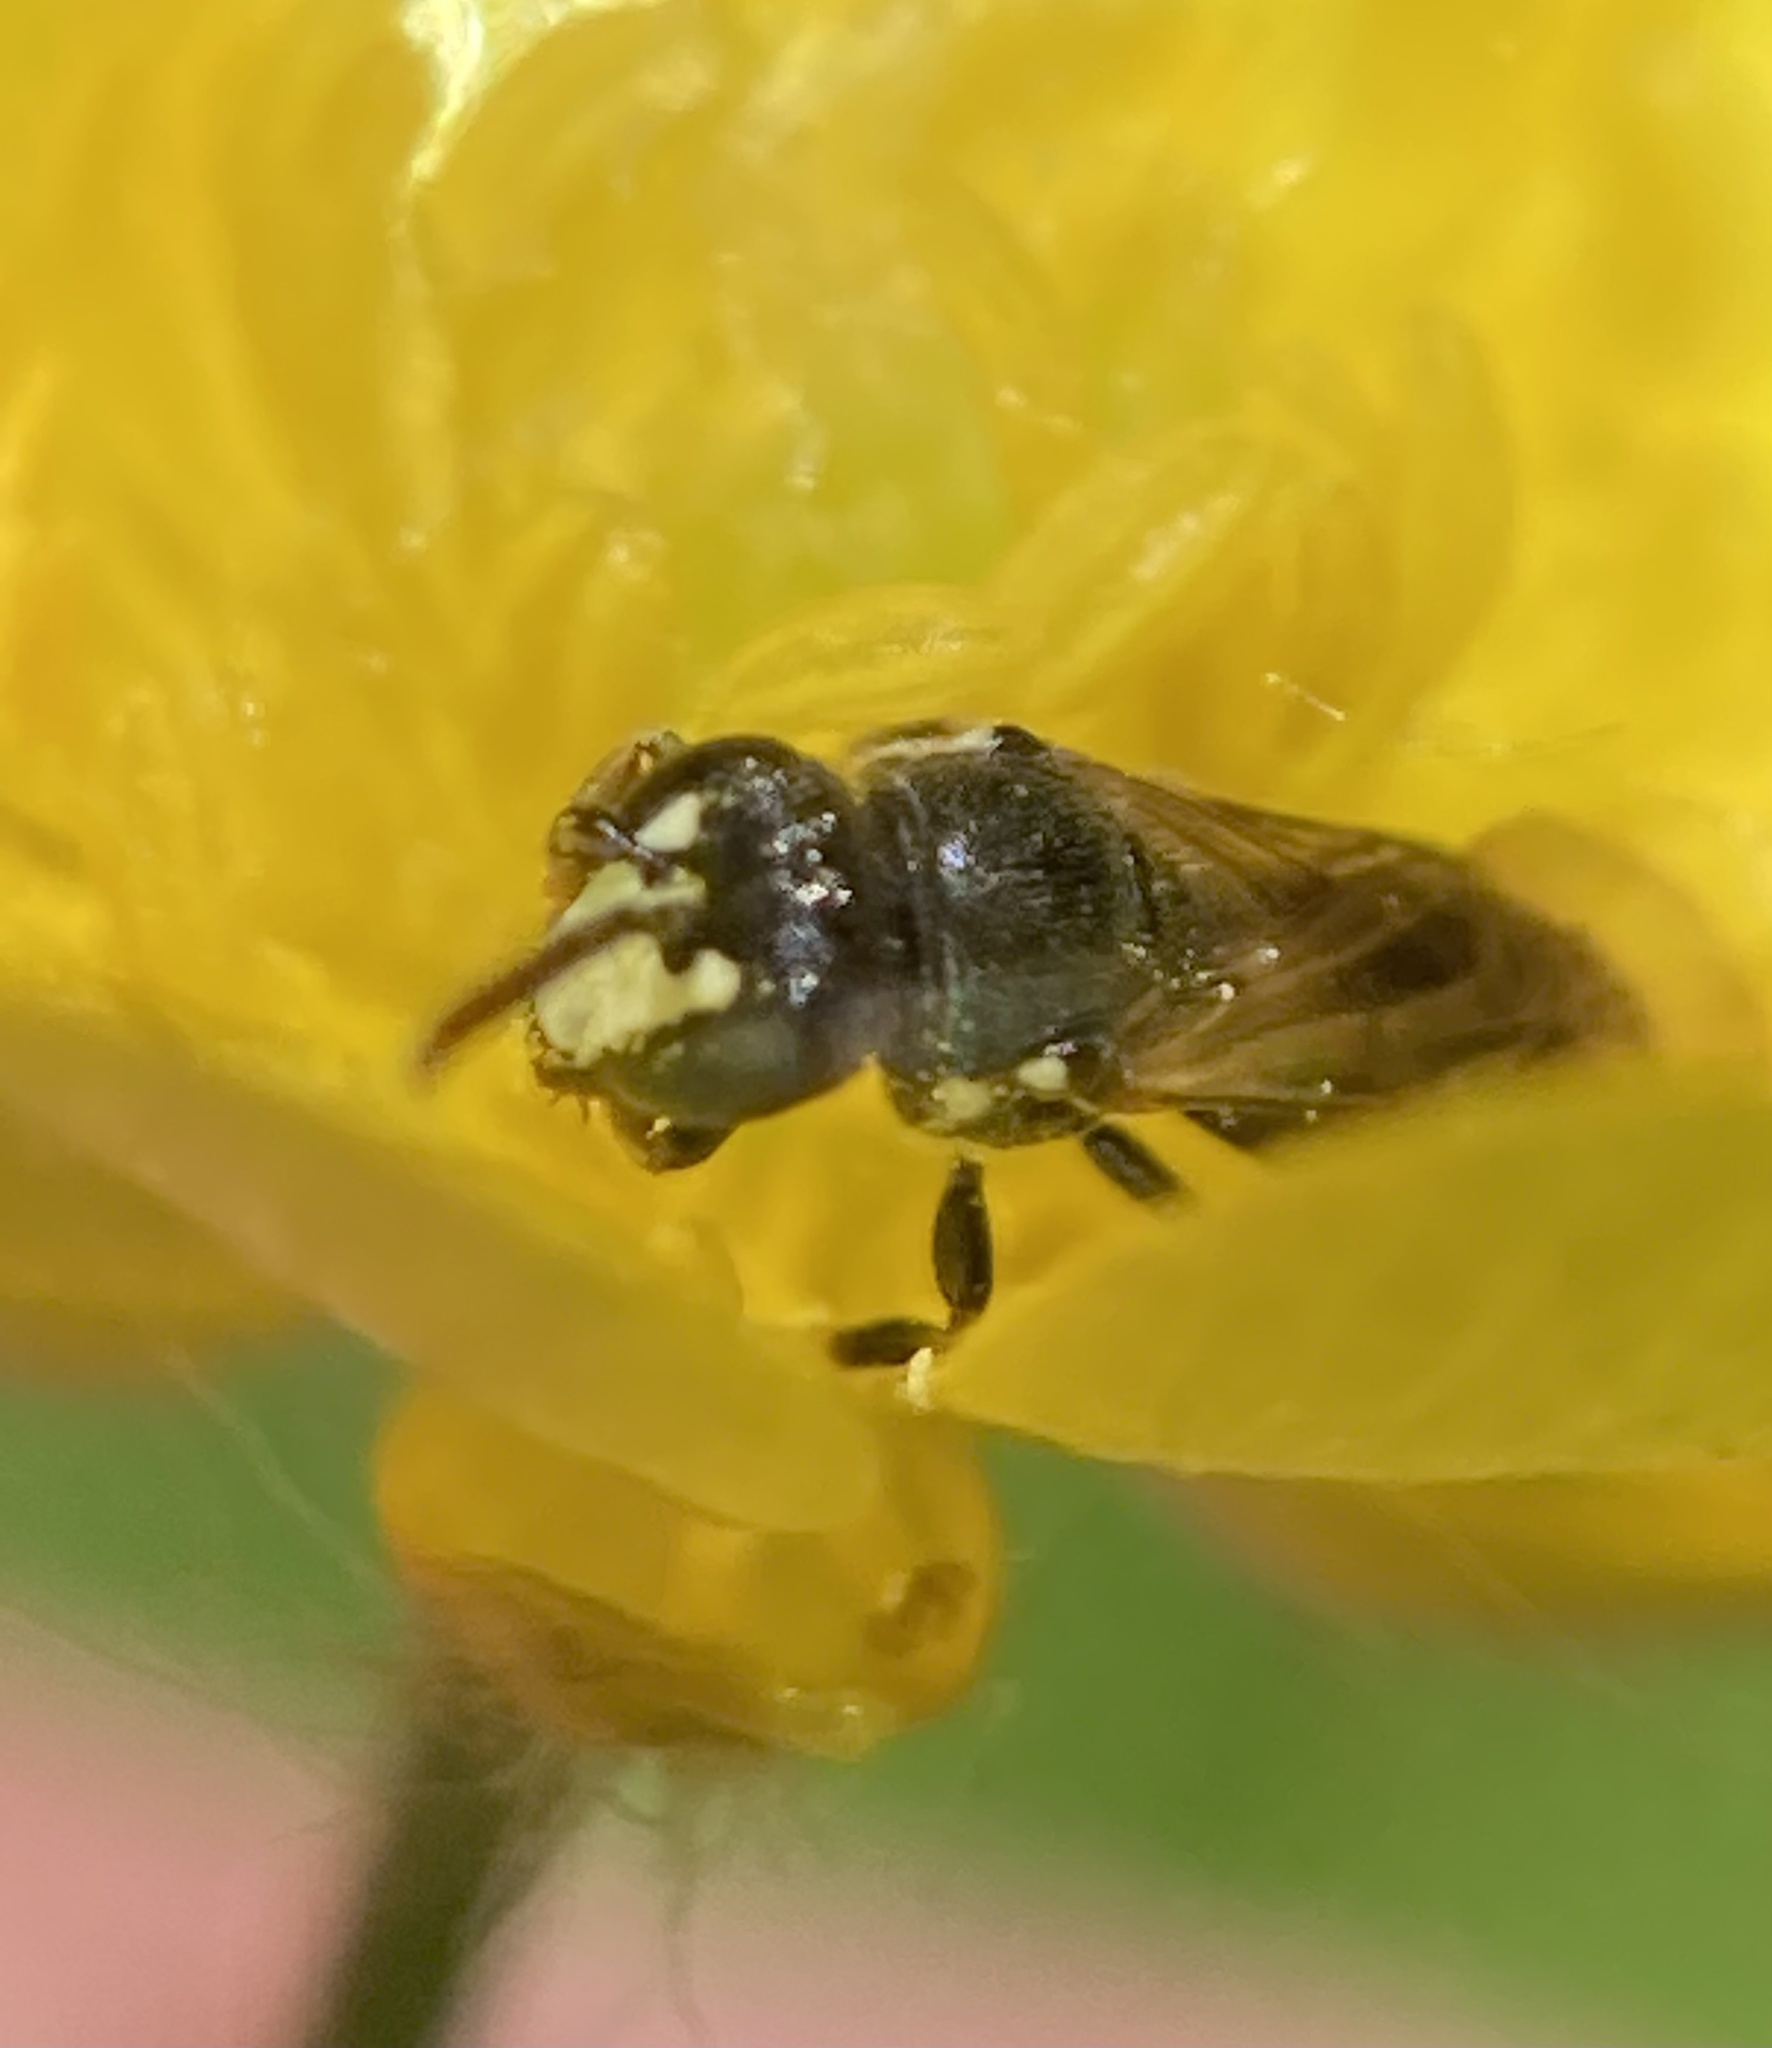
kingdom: Animalia
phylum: Arthropoda
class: Insecta
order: Hymenoptera
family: Colletidae
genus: Hylaeus
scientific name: Hylaeus leptocephalus
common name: Slender-faced masked bee
